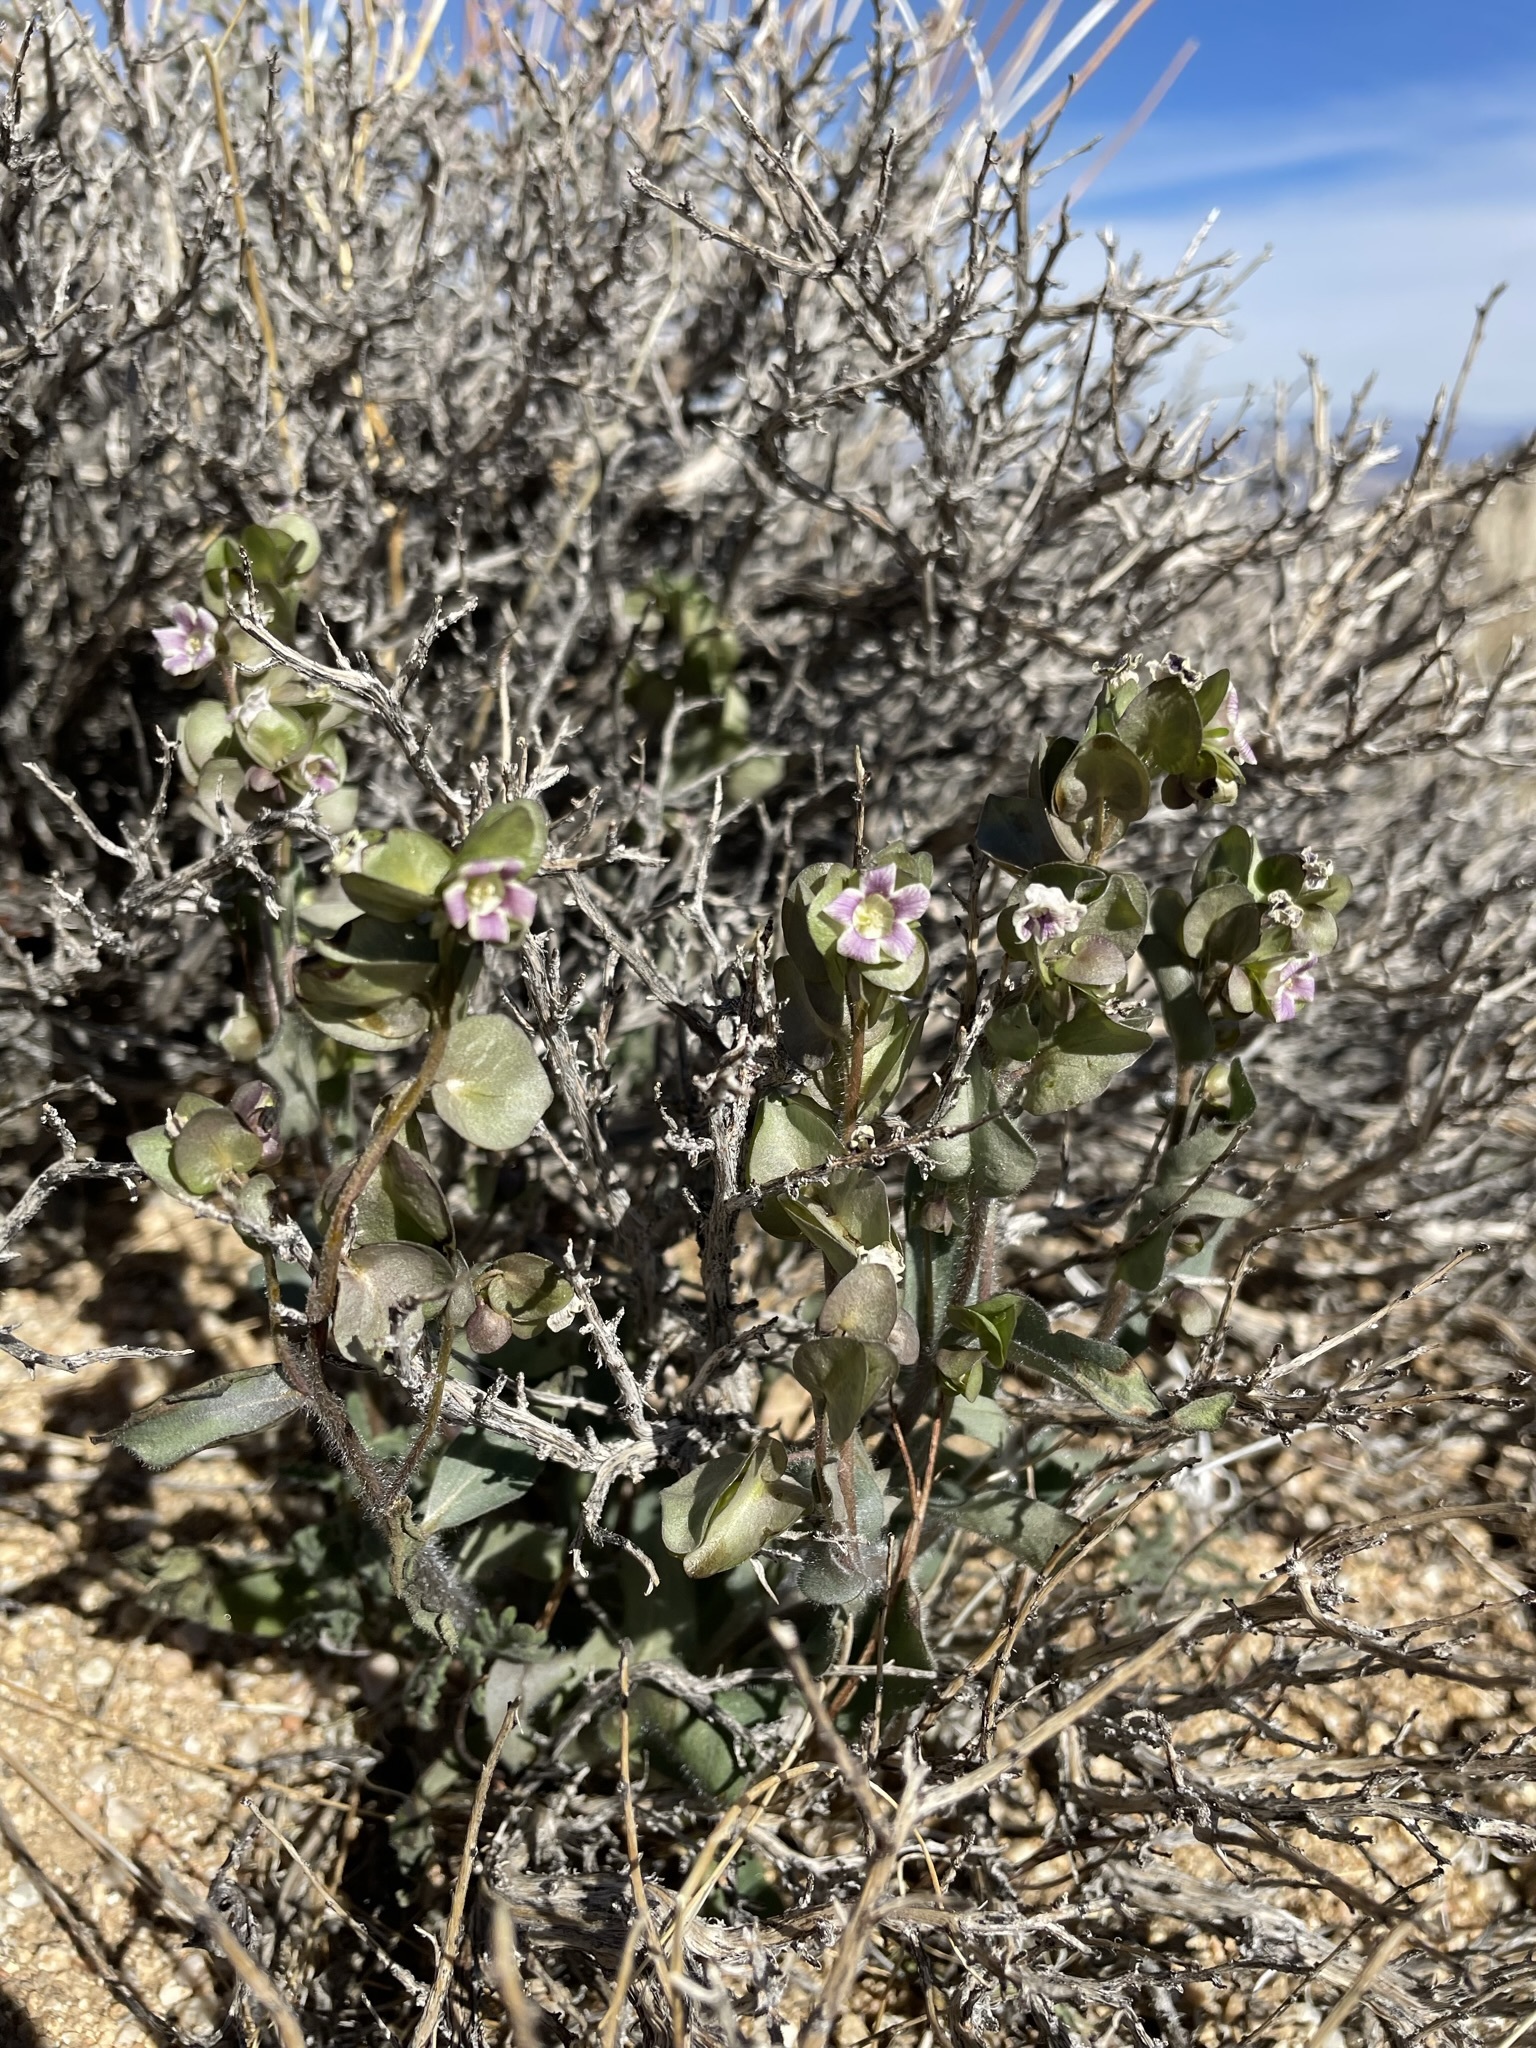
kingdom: Plantae
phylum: Tracheophyta
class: Magnoliopsida
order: Boraginales
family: Hydrophyllaceae
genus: Tricardia
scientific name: Tricardia watsonii
